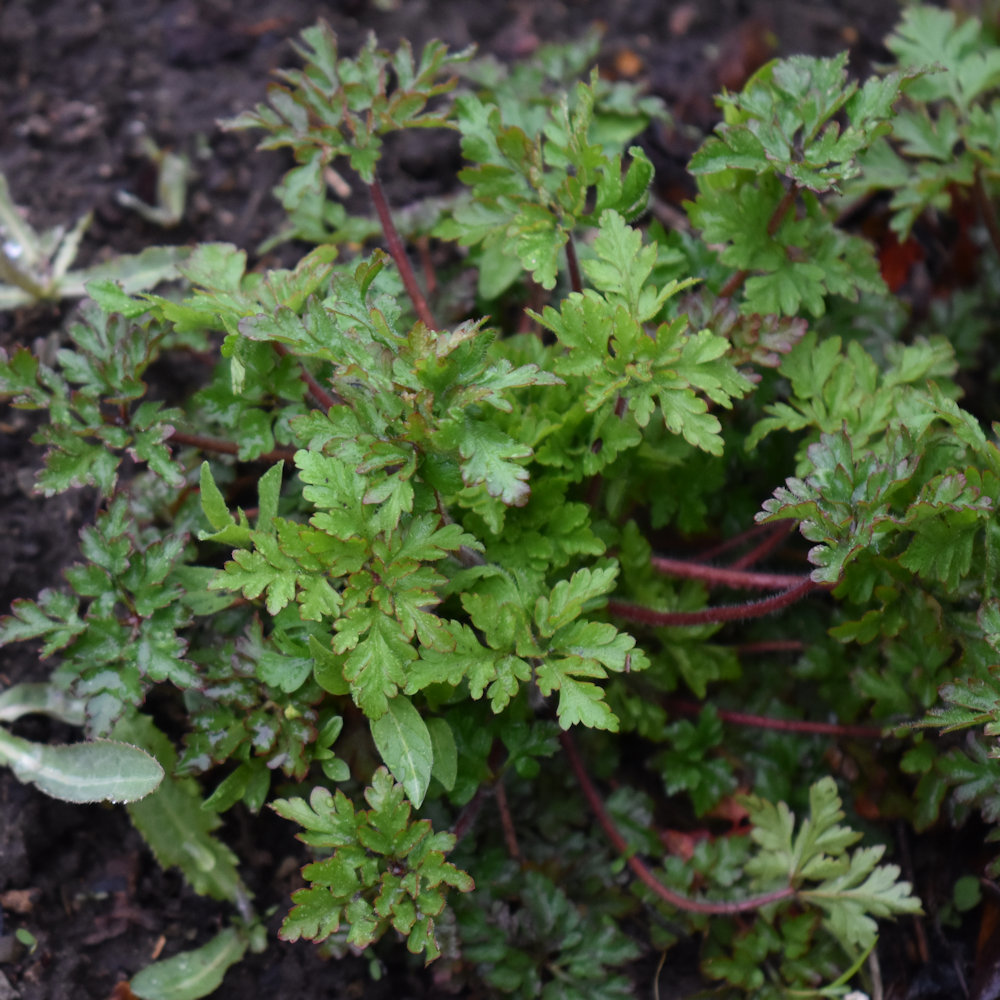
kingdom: Plantae
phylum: Tracheophyta
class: Magnoliopsida
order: Geraniales
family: Geraniaceae
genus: Geranium
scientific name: Geranium robertianum
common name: Herb-robert
